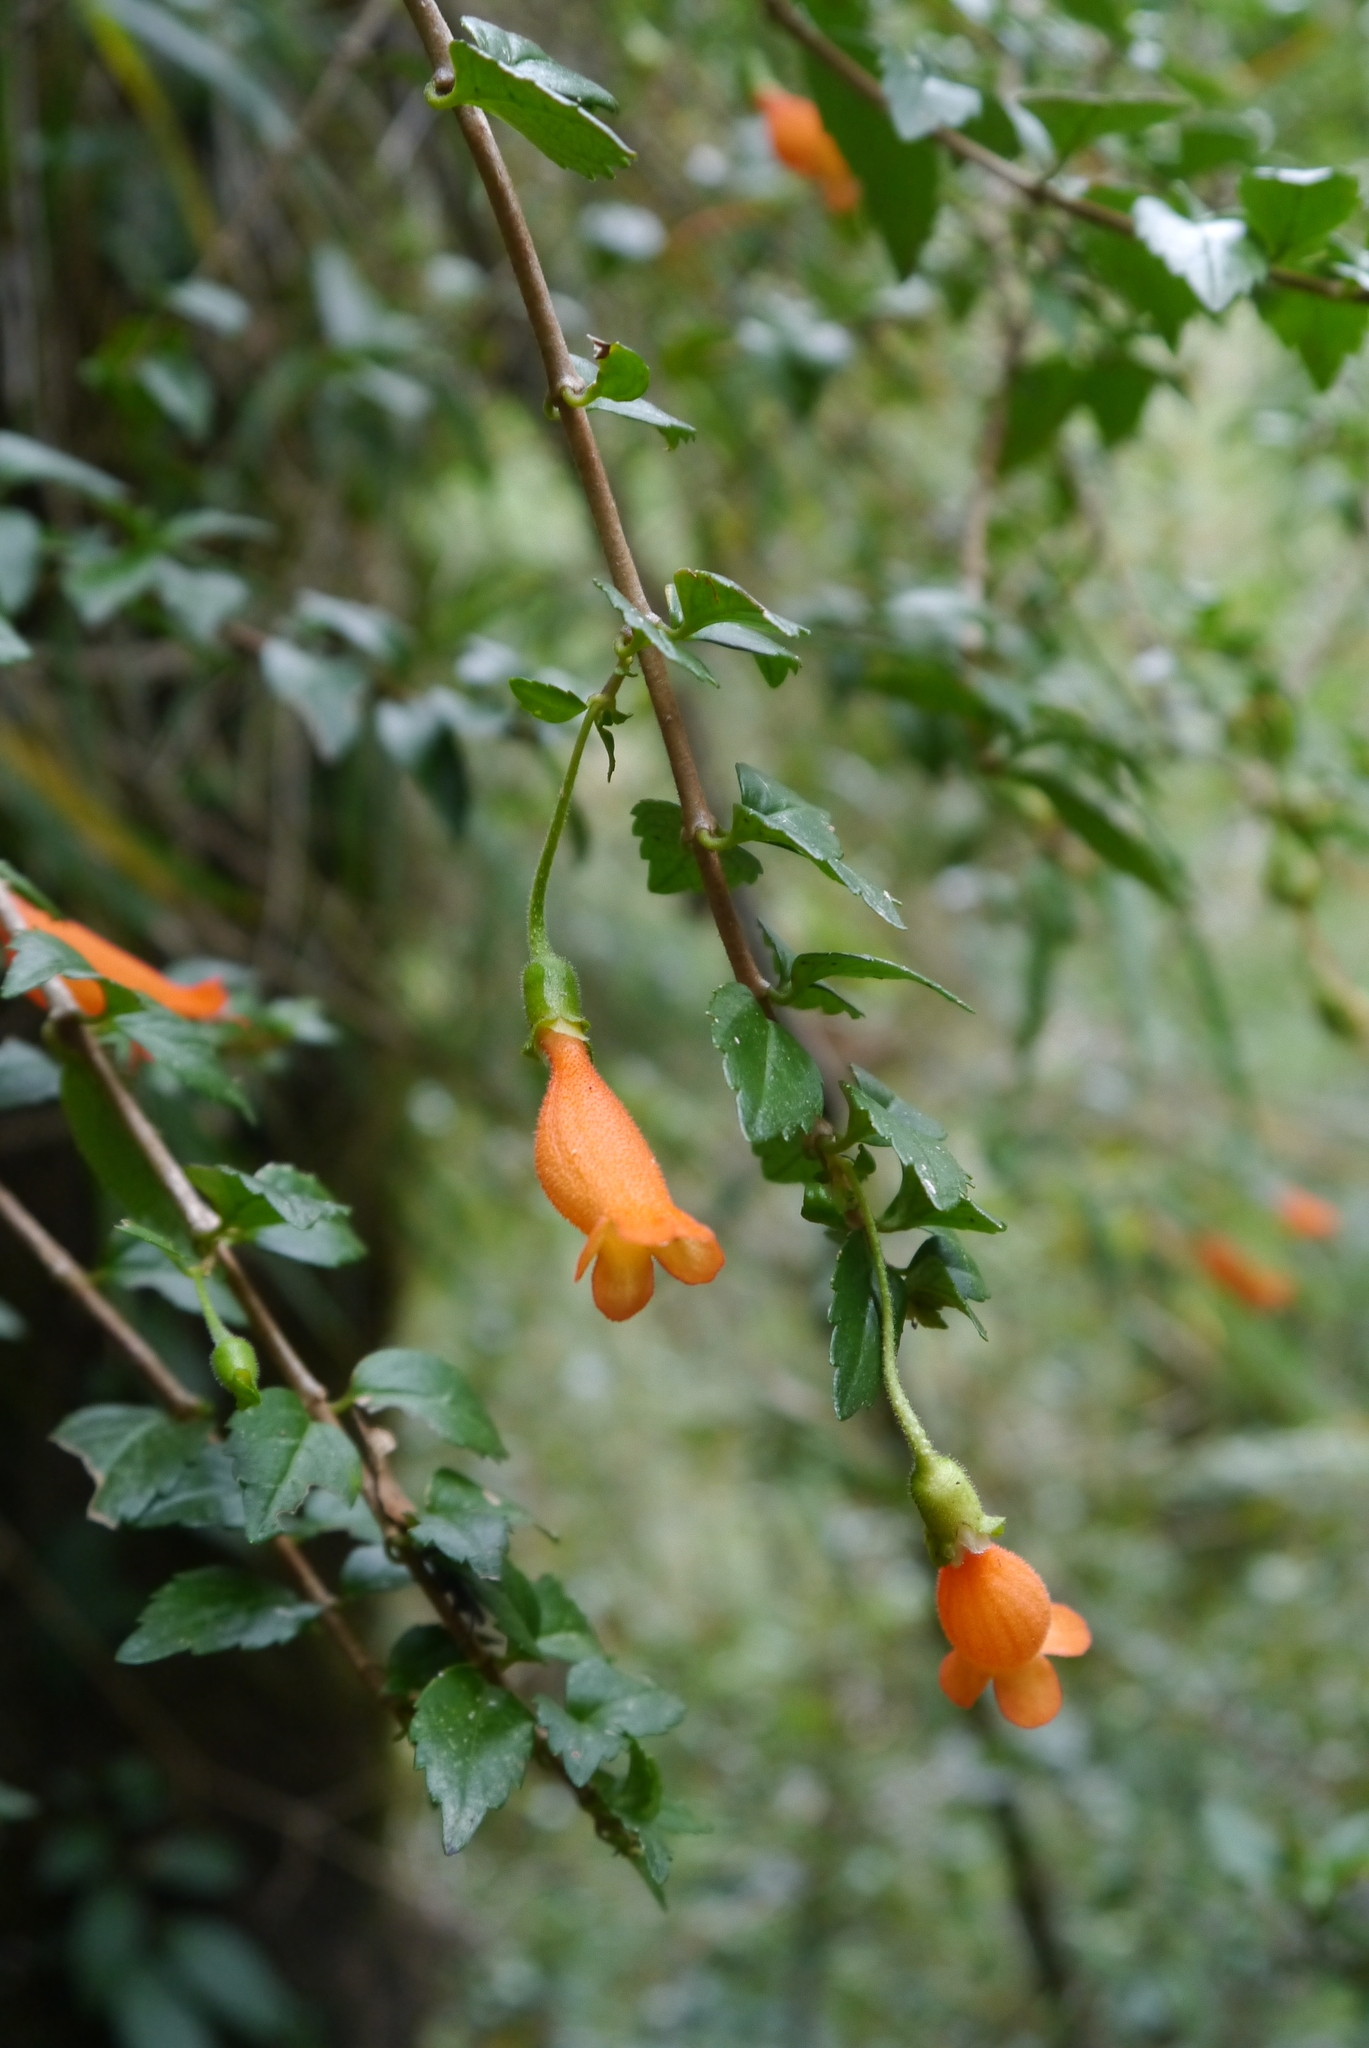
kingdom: Plantae
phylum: Tracheophyta
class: Magnoliopsida
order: Lamiales
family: Gesneriaceae
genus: Mitraria
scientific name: Mitraria coccinea
